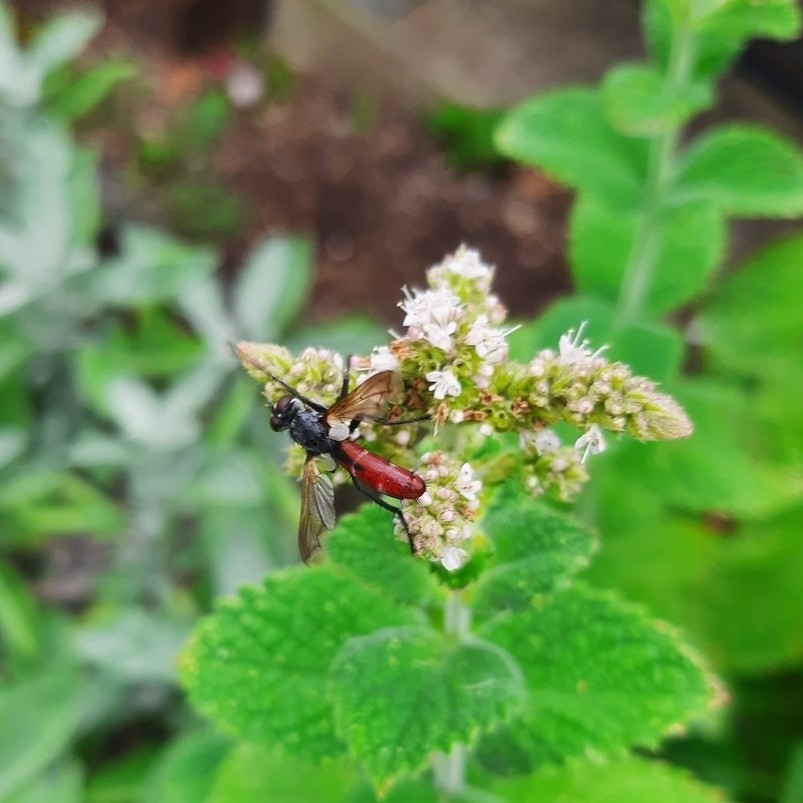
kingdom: Animalia
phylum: Arthropoda
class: Insecta
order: Diptera
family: Tachinidae
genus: Cylindromyia
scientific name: Cylindromyia bicolor
